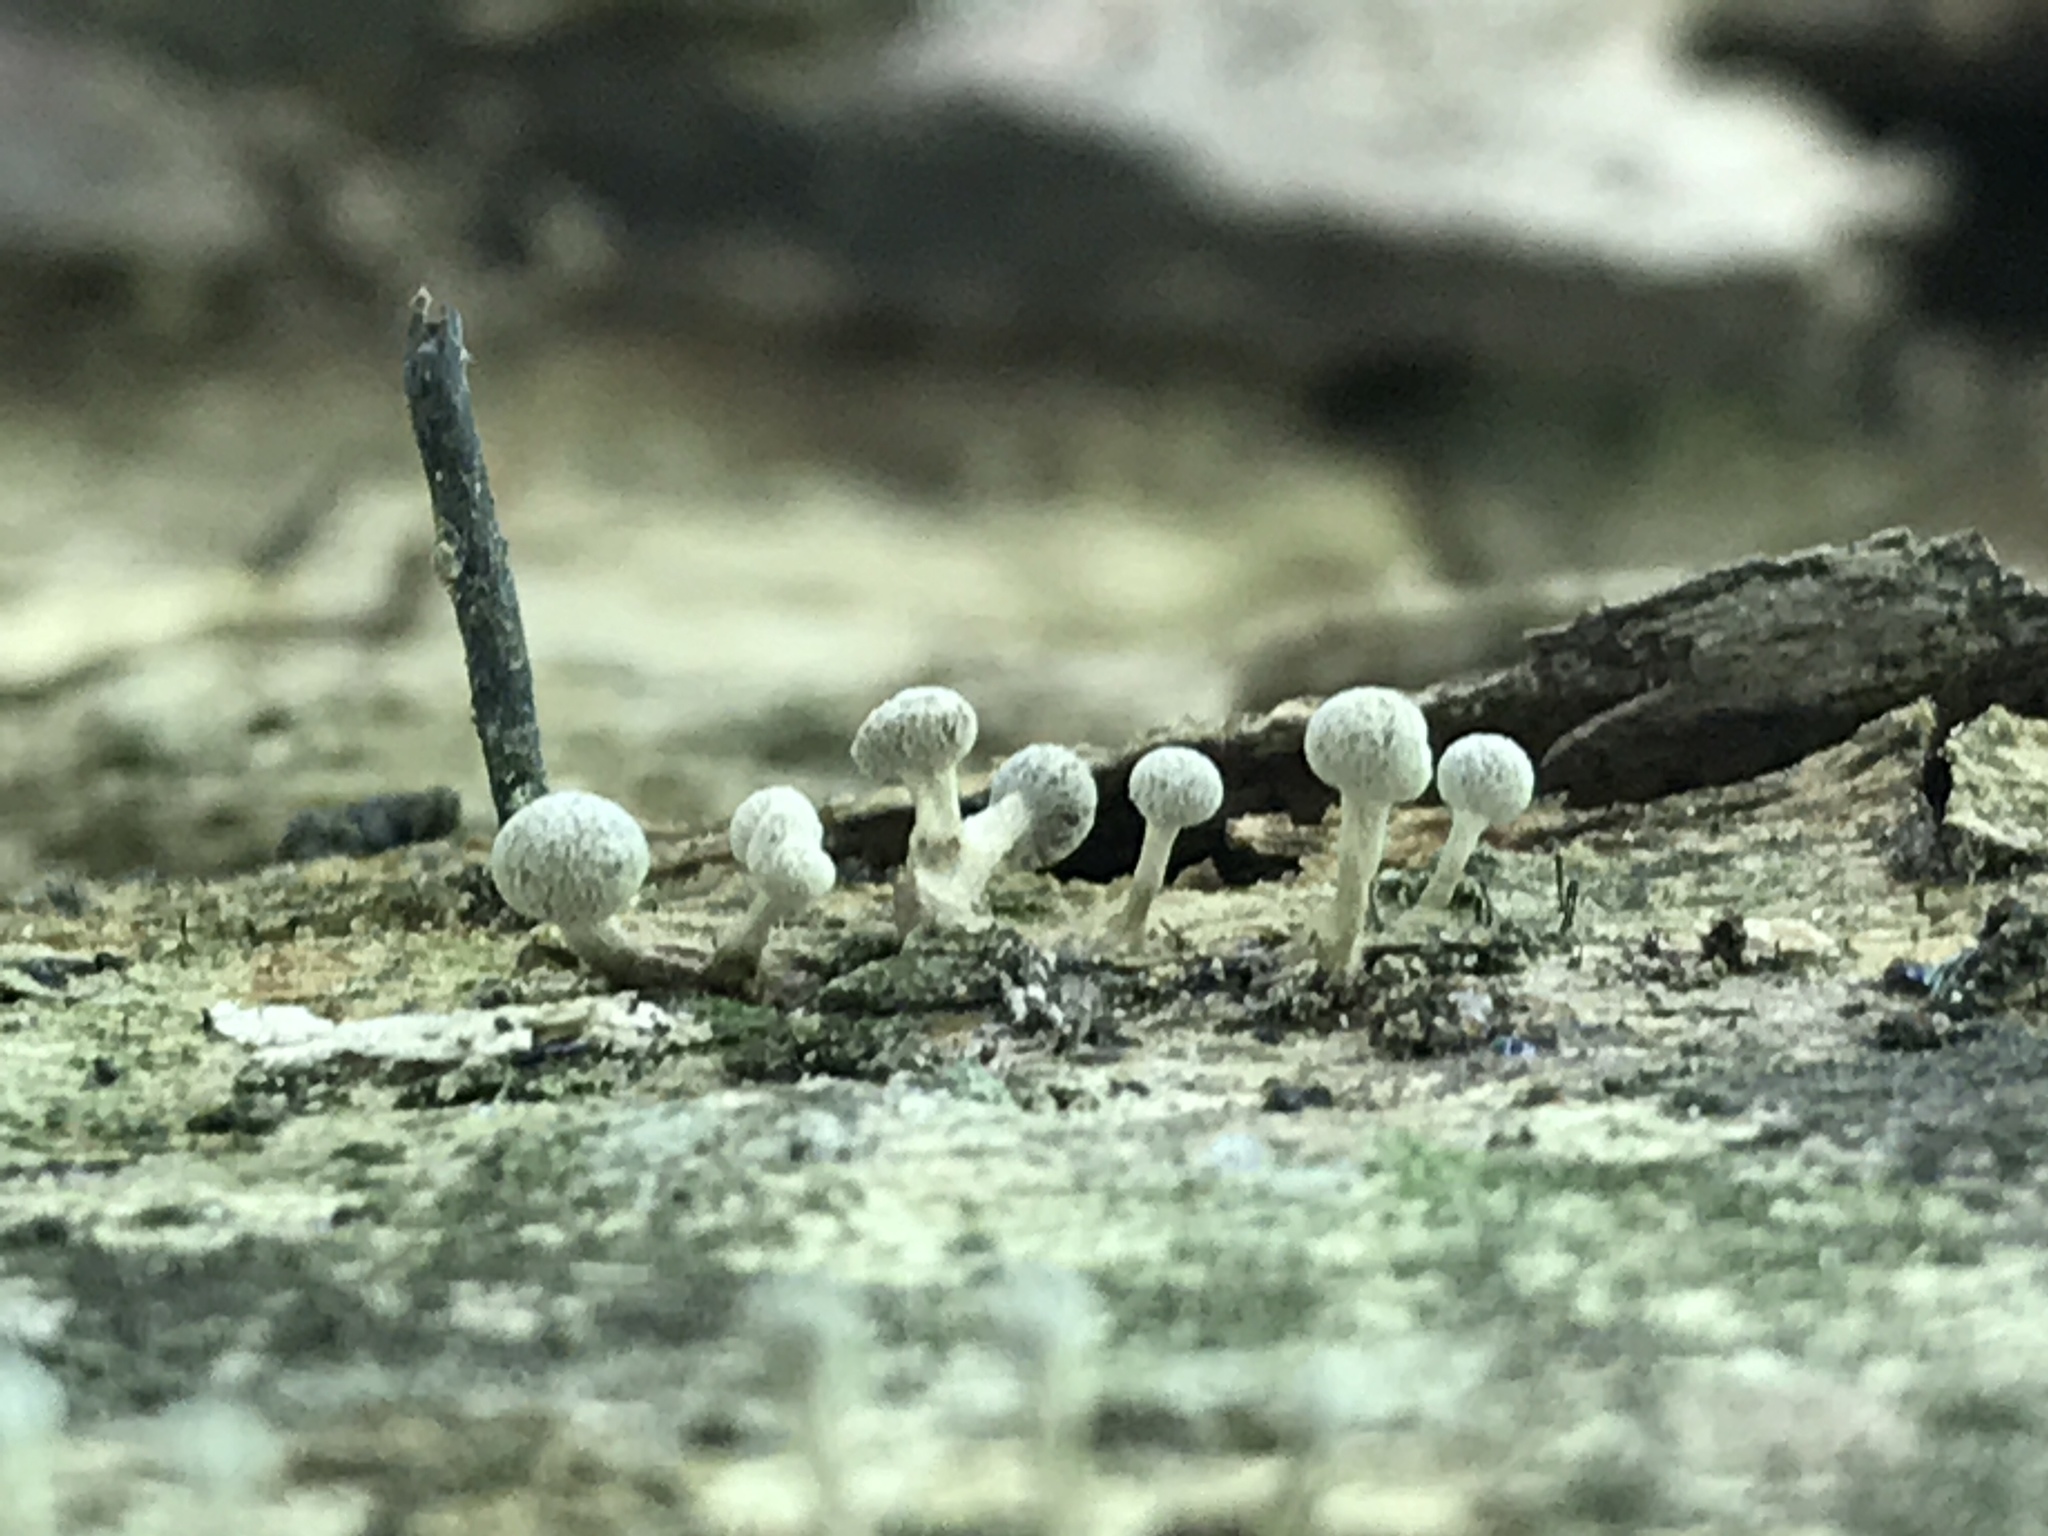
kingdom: Fungi
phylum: Basidiomycota
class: Atractiellomycetes
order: Atractiellales
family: Phleogenaceae
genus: Phleogena
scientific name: Phleogena faginea
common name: Fenugreek stalkball
